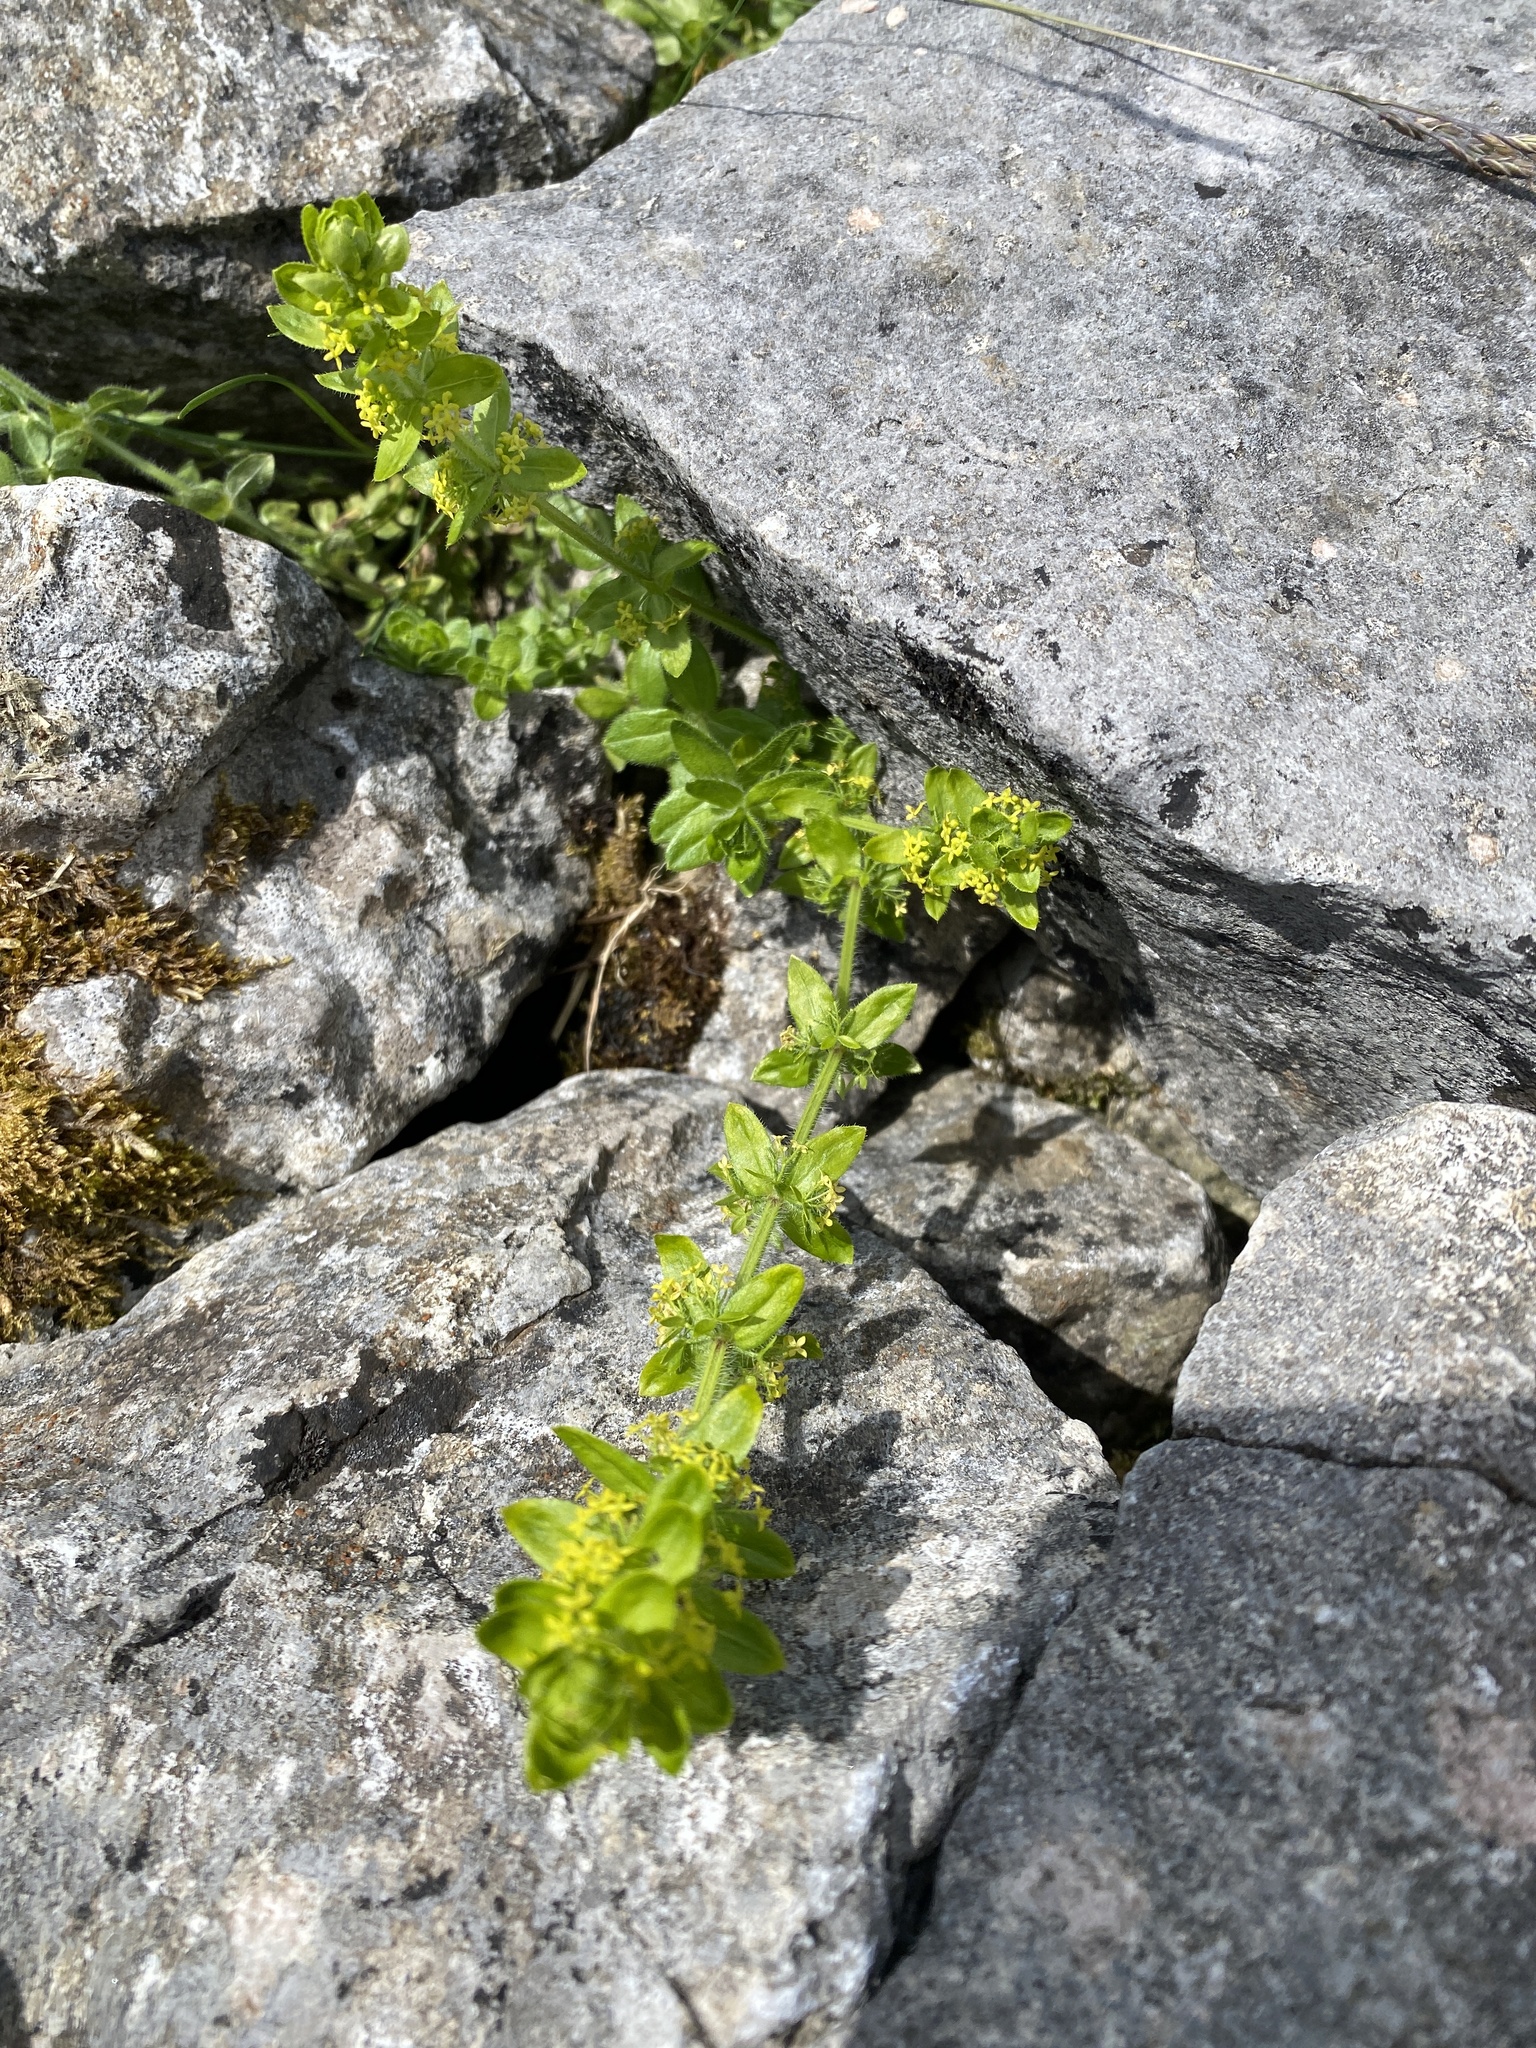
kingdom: Plantae
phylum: Tracheophyta
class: Magnoliopsida
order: Gentianales
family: Rubiaceae
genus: Cruciata
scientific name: Cruciata laevipes
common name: Crosswort
